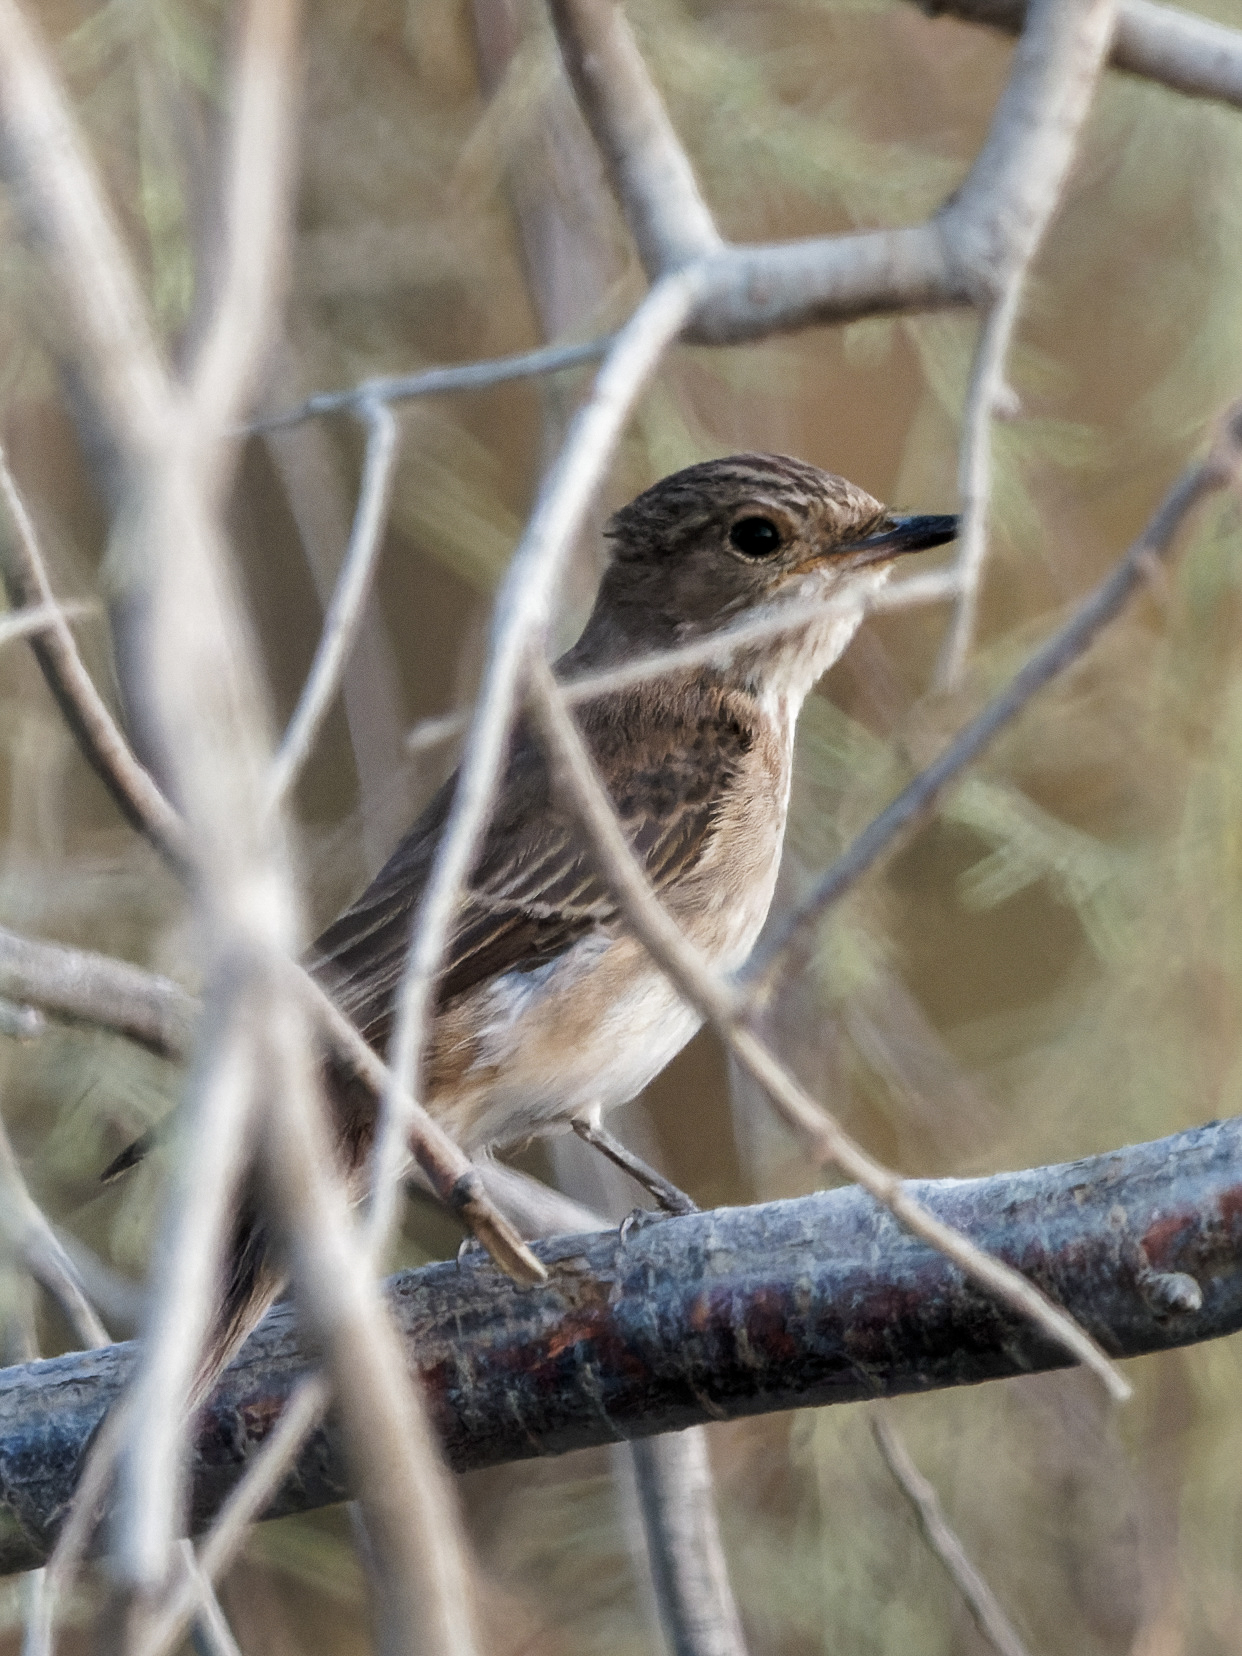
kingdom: Animalia
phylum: Chordata
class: Aves
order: Passeriformes
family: Muscicapidae
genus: Muscicapa
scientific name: Muscicapa striata
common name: Spotted flycatcher
